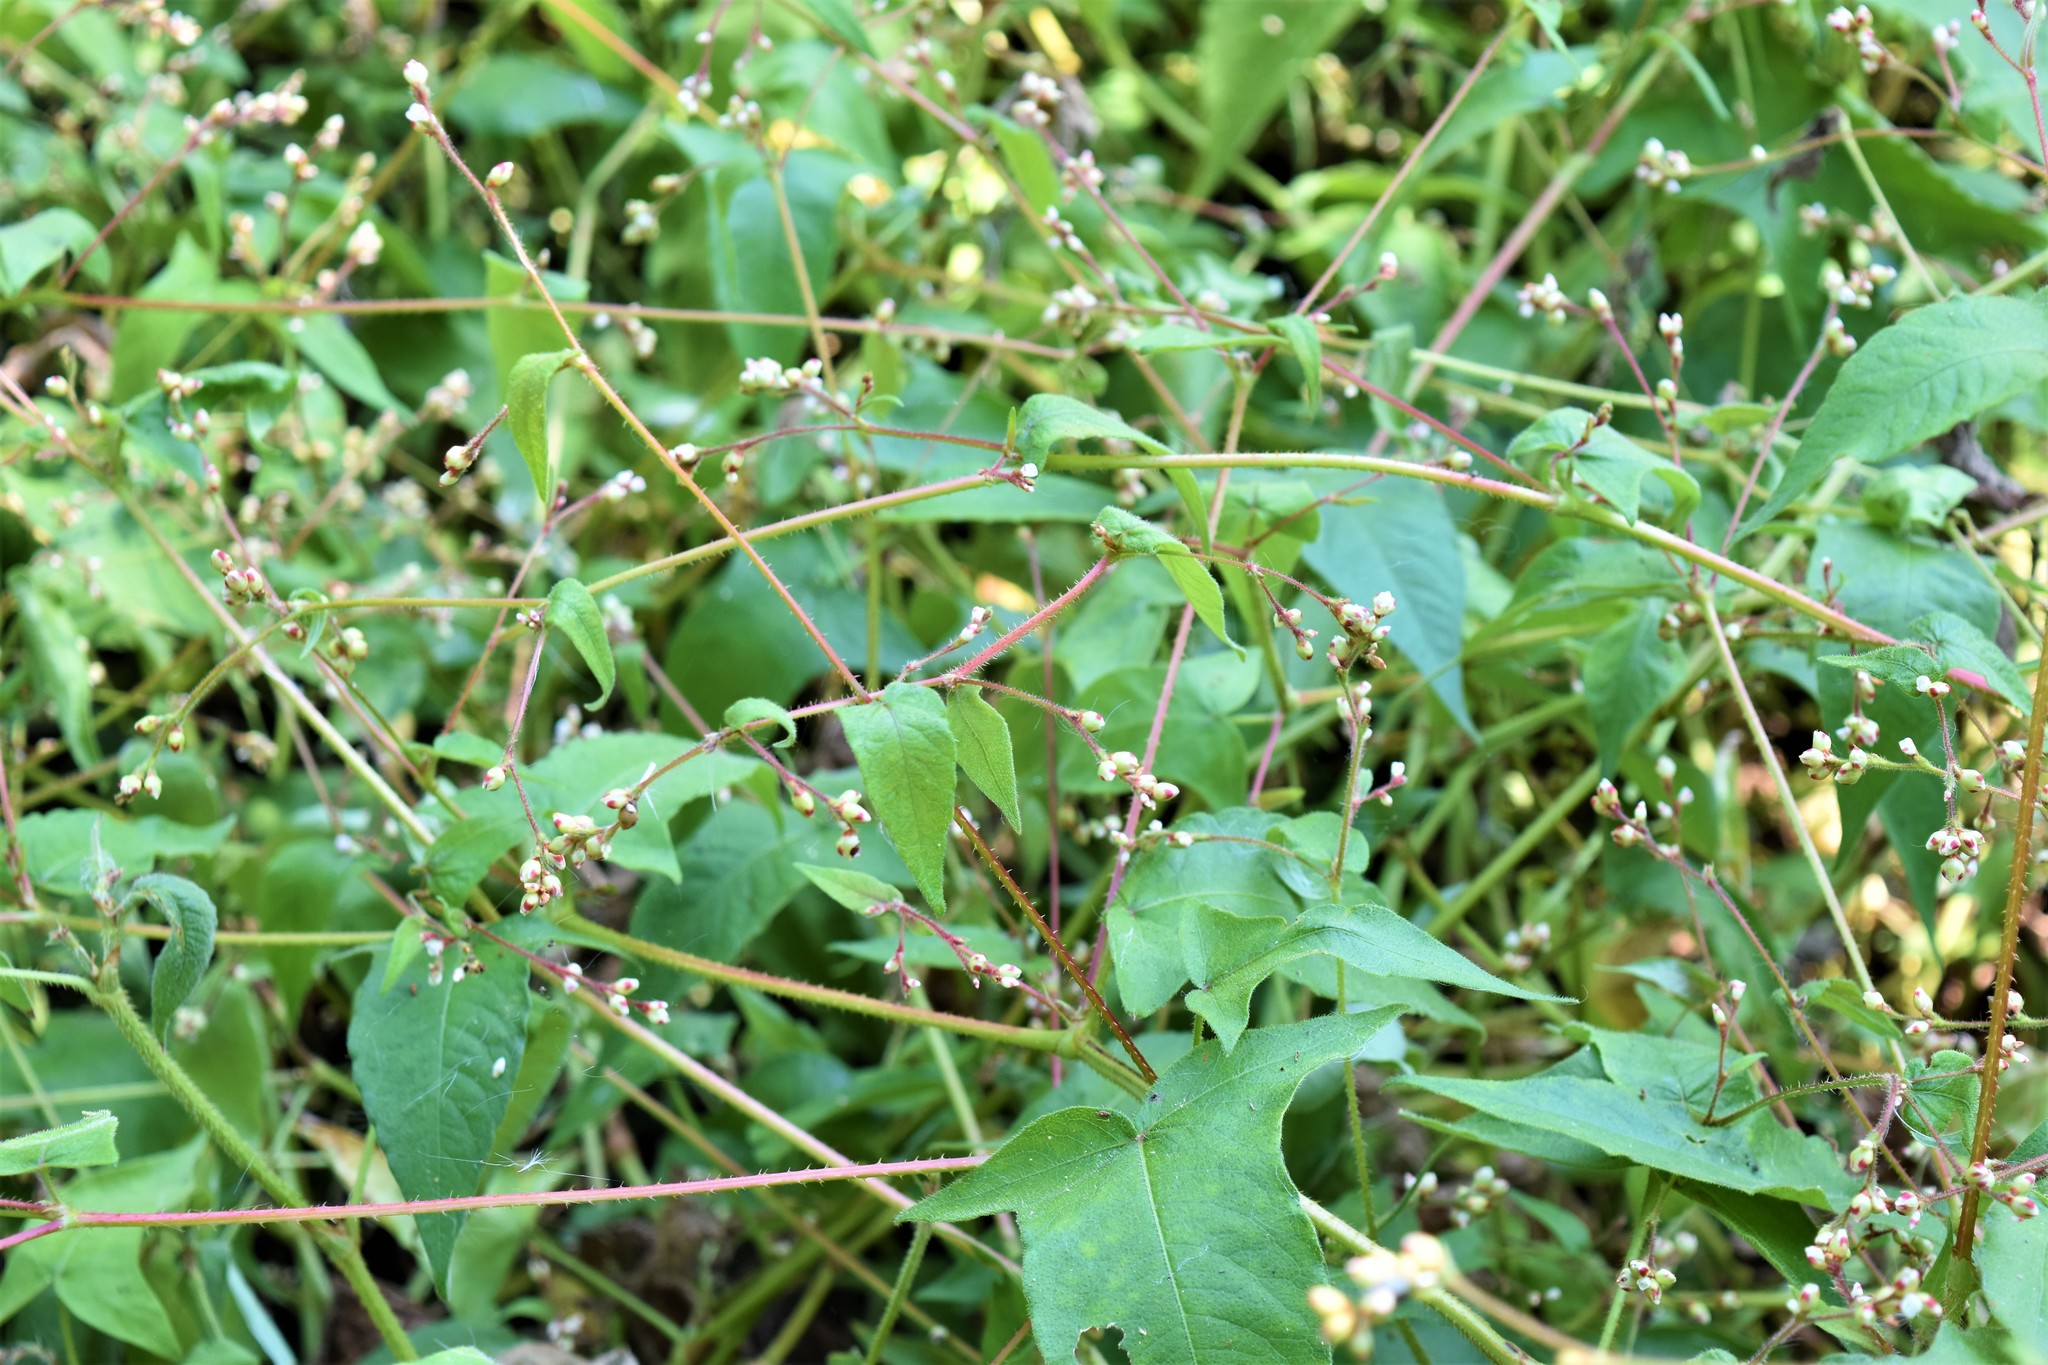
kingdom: Plantae
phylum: Tracheophyta
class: Magnoliopsida
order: Caryophyllales
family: Polygonaceae
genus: Persicaria
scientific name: Persicaria arifolia
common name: Halberd-leaved tear-thumb
